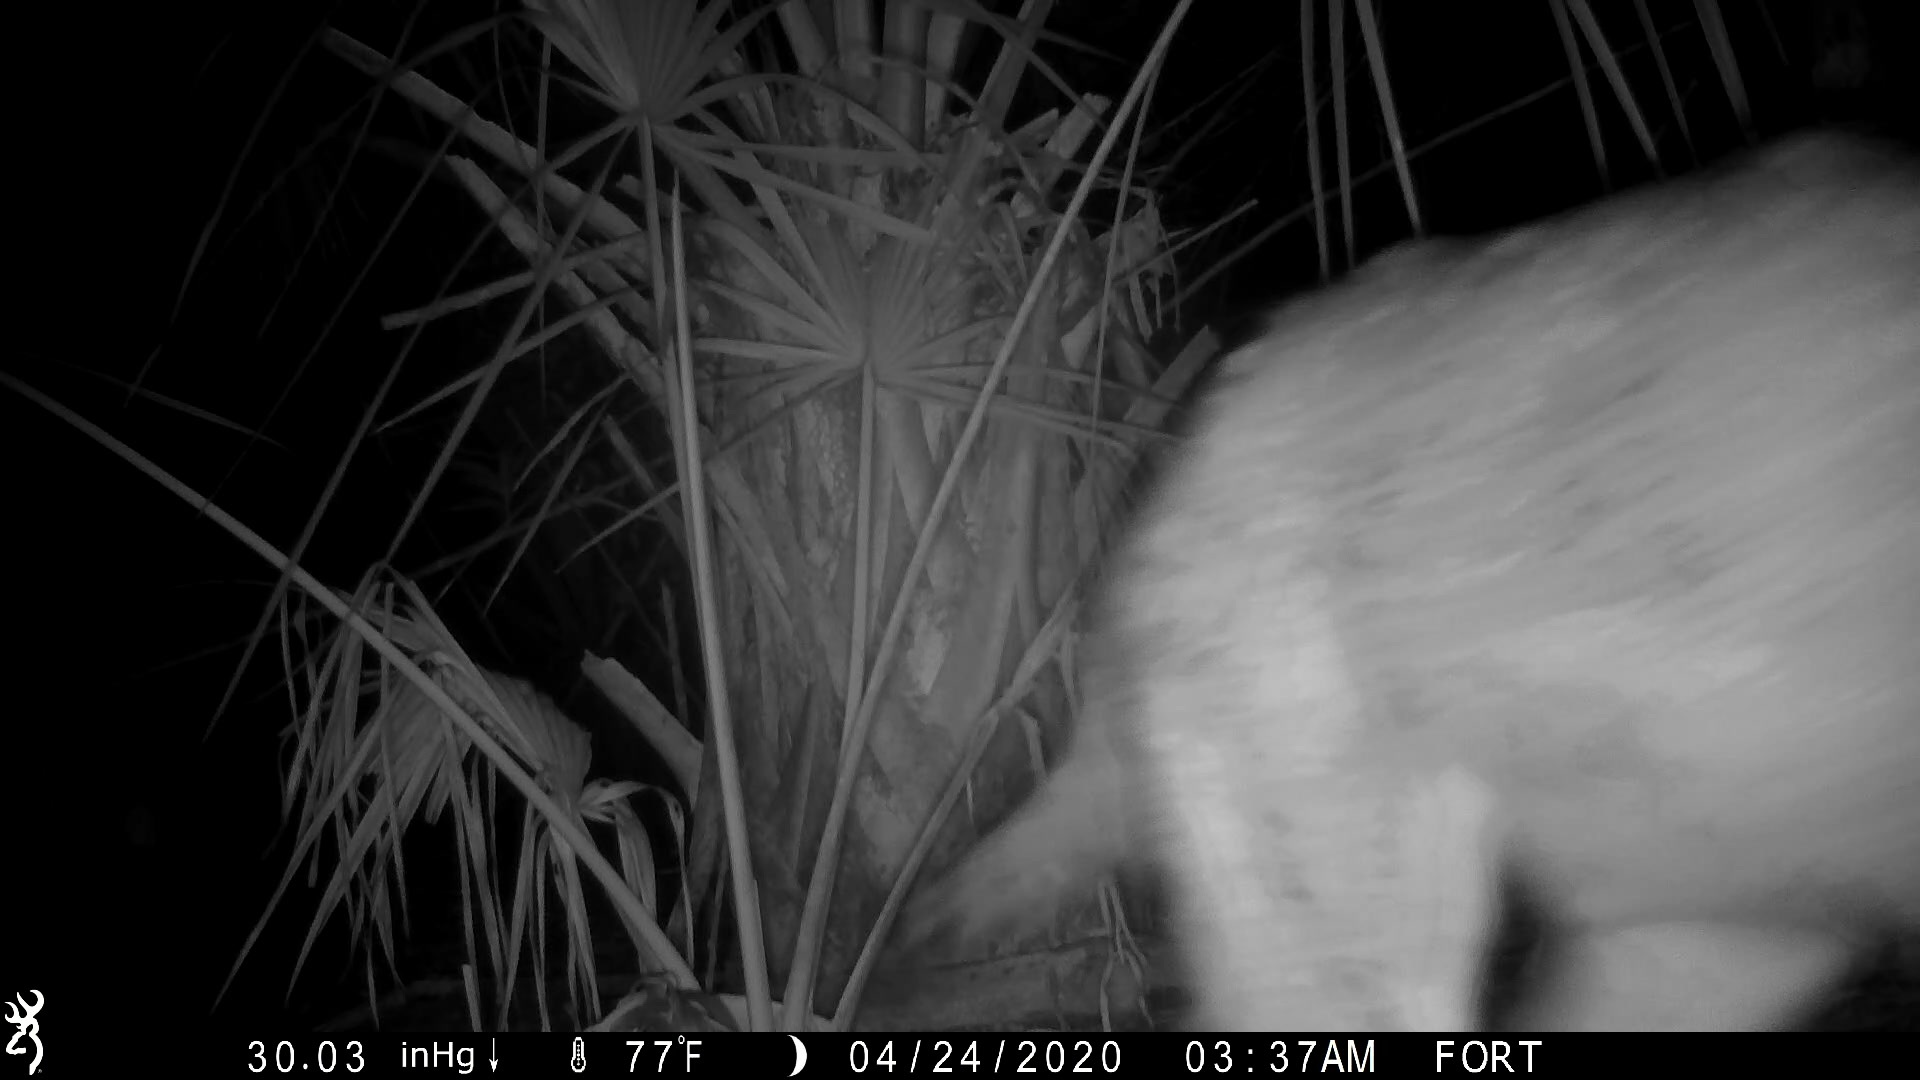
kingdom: Animalia
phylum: Chordata
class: Mammalia
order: Carnivora
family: Canidae
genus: Canis
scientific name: Canis latrans
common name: Coyote
